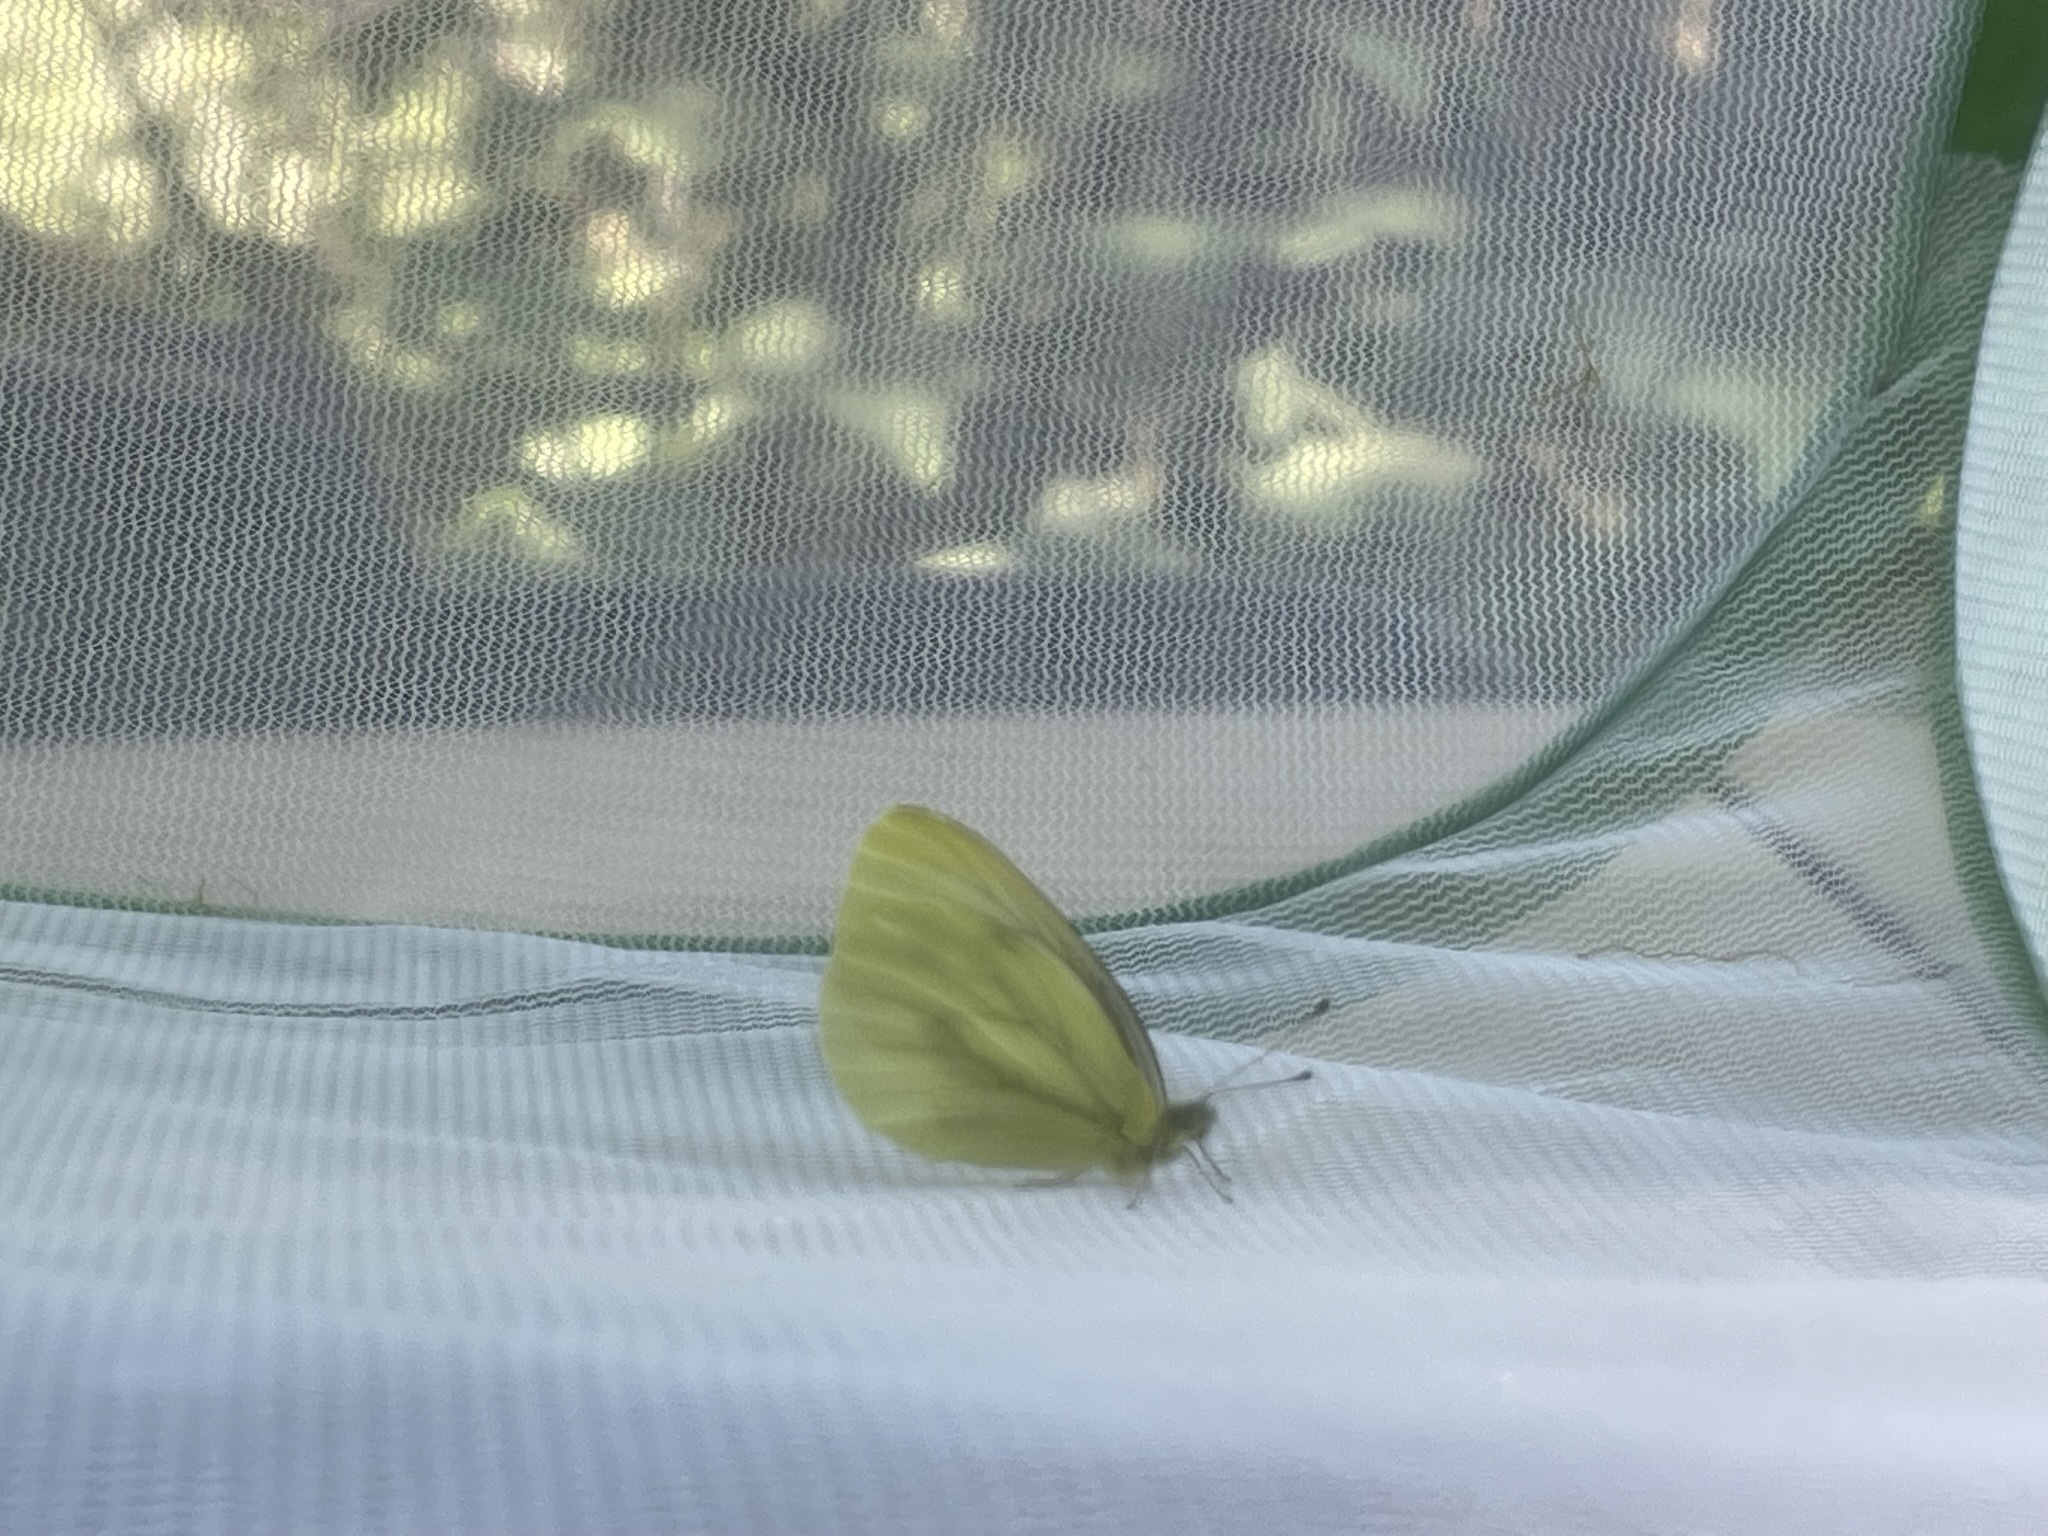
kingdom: Animalia
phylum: Arthropoda
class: Insecta
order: Lepidoptera
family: Pieridae
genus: Pieris
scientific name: Pieris marginalis
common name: Margined white
